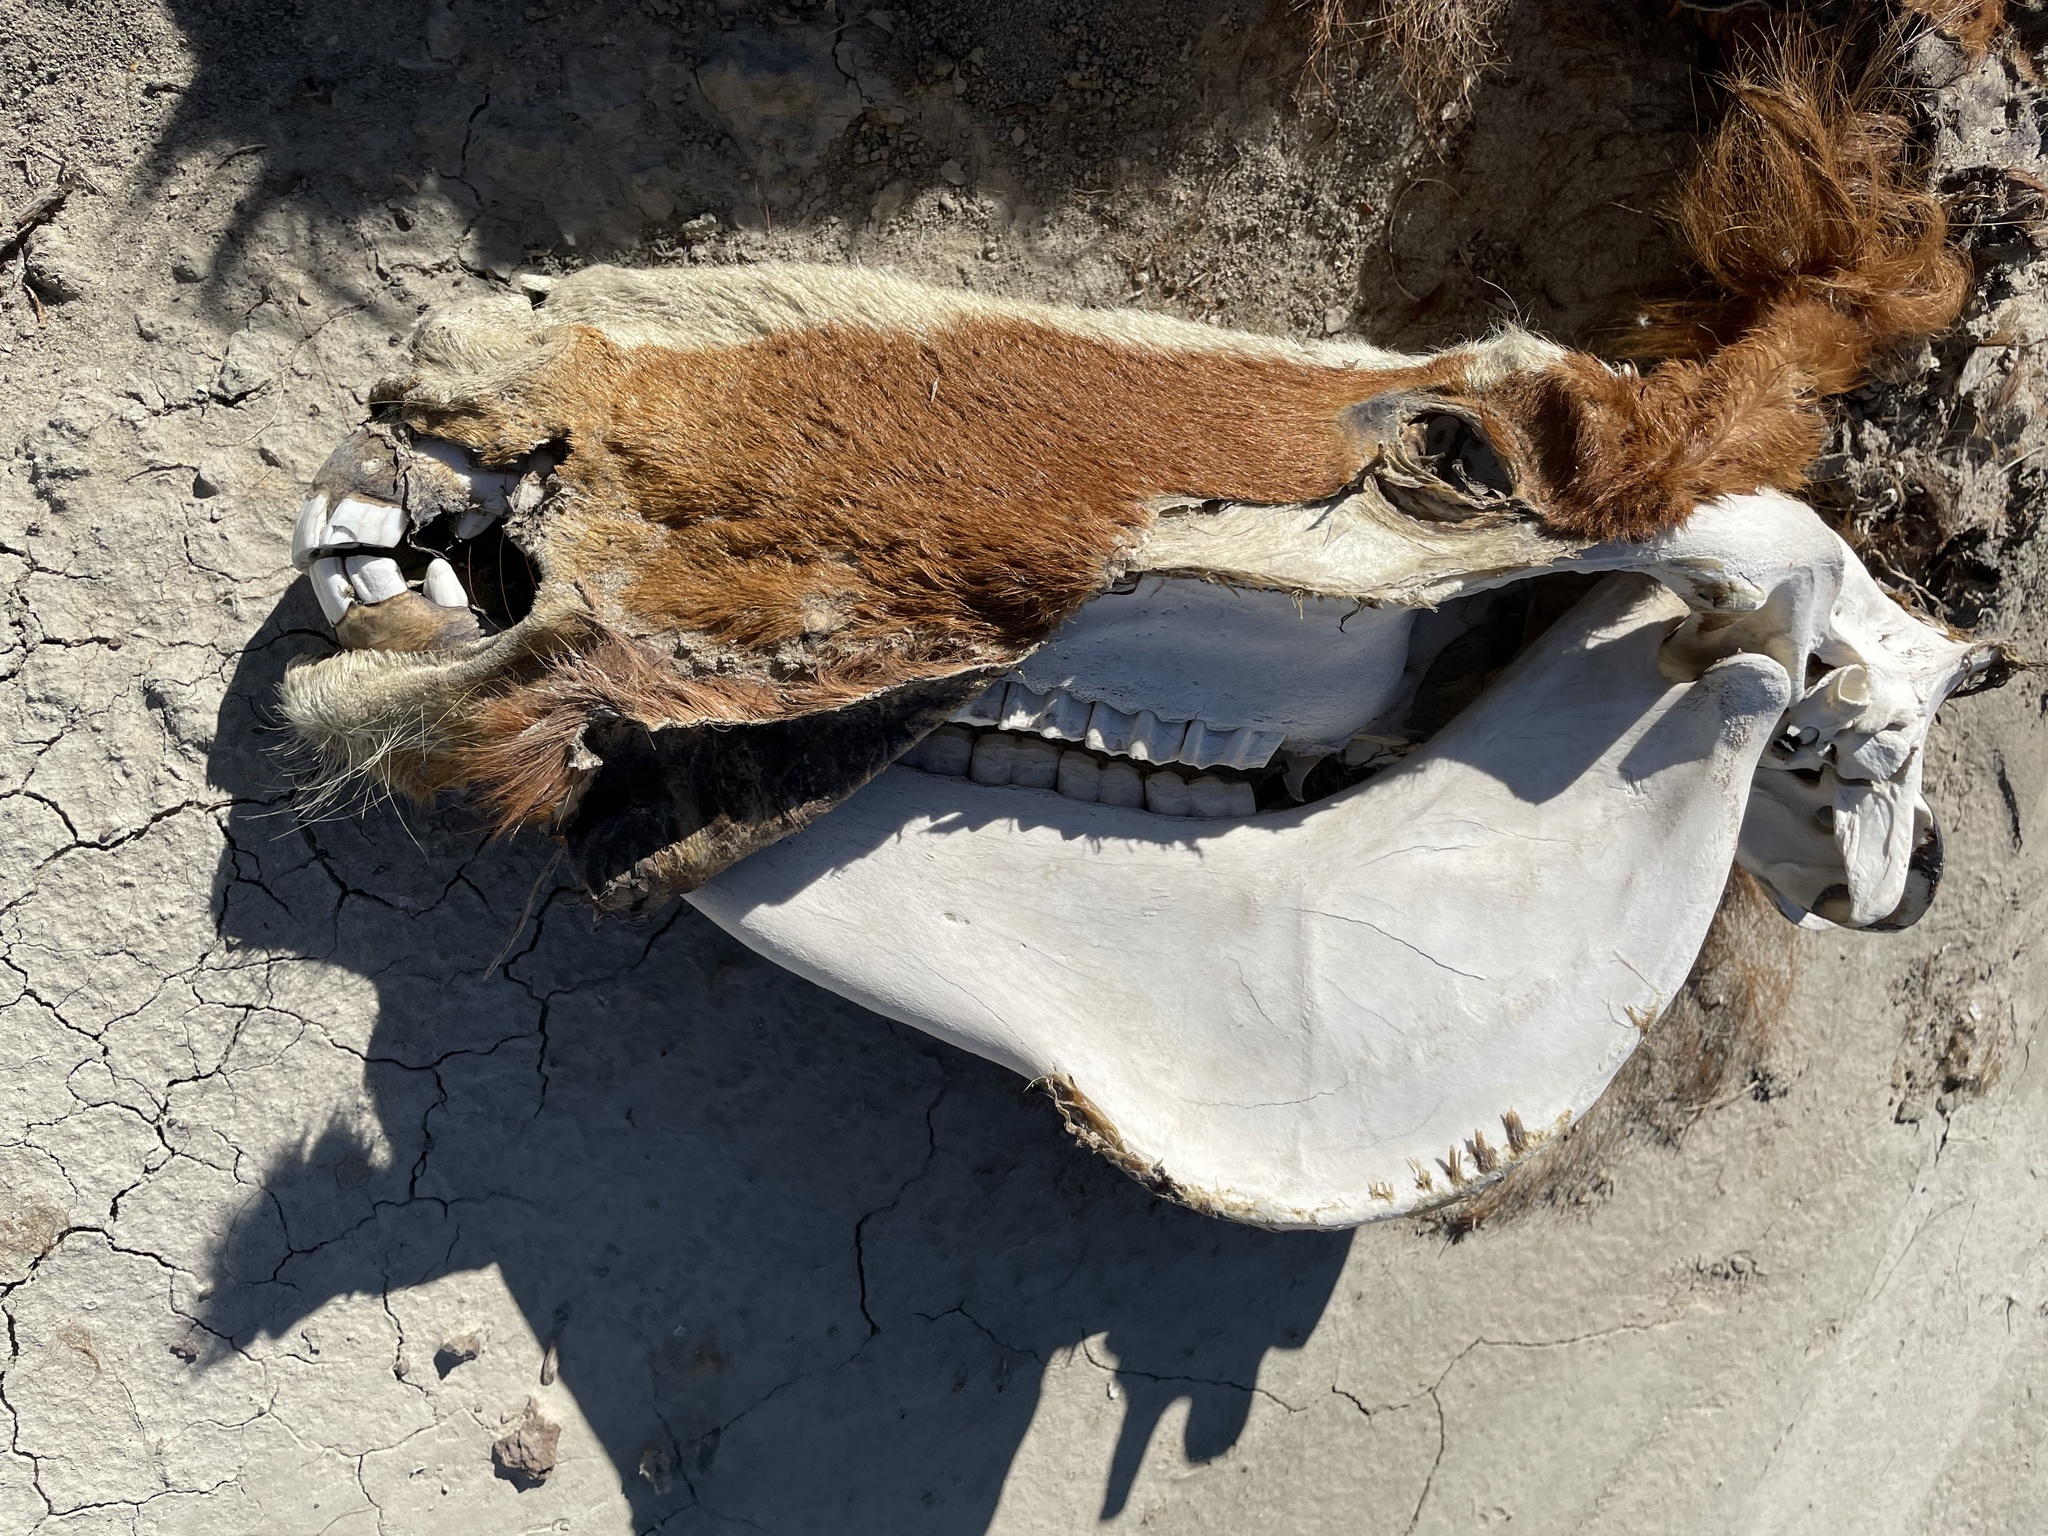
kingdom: Animalia
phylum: Chordata
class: Mammalia
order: Perissodactyla
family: Equidae
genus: Equus
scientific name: Equus caballus
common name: Horse
